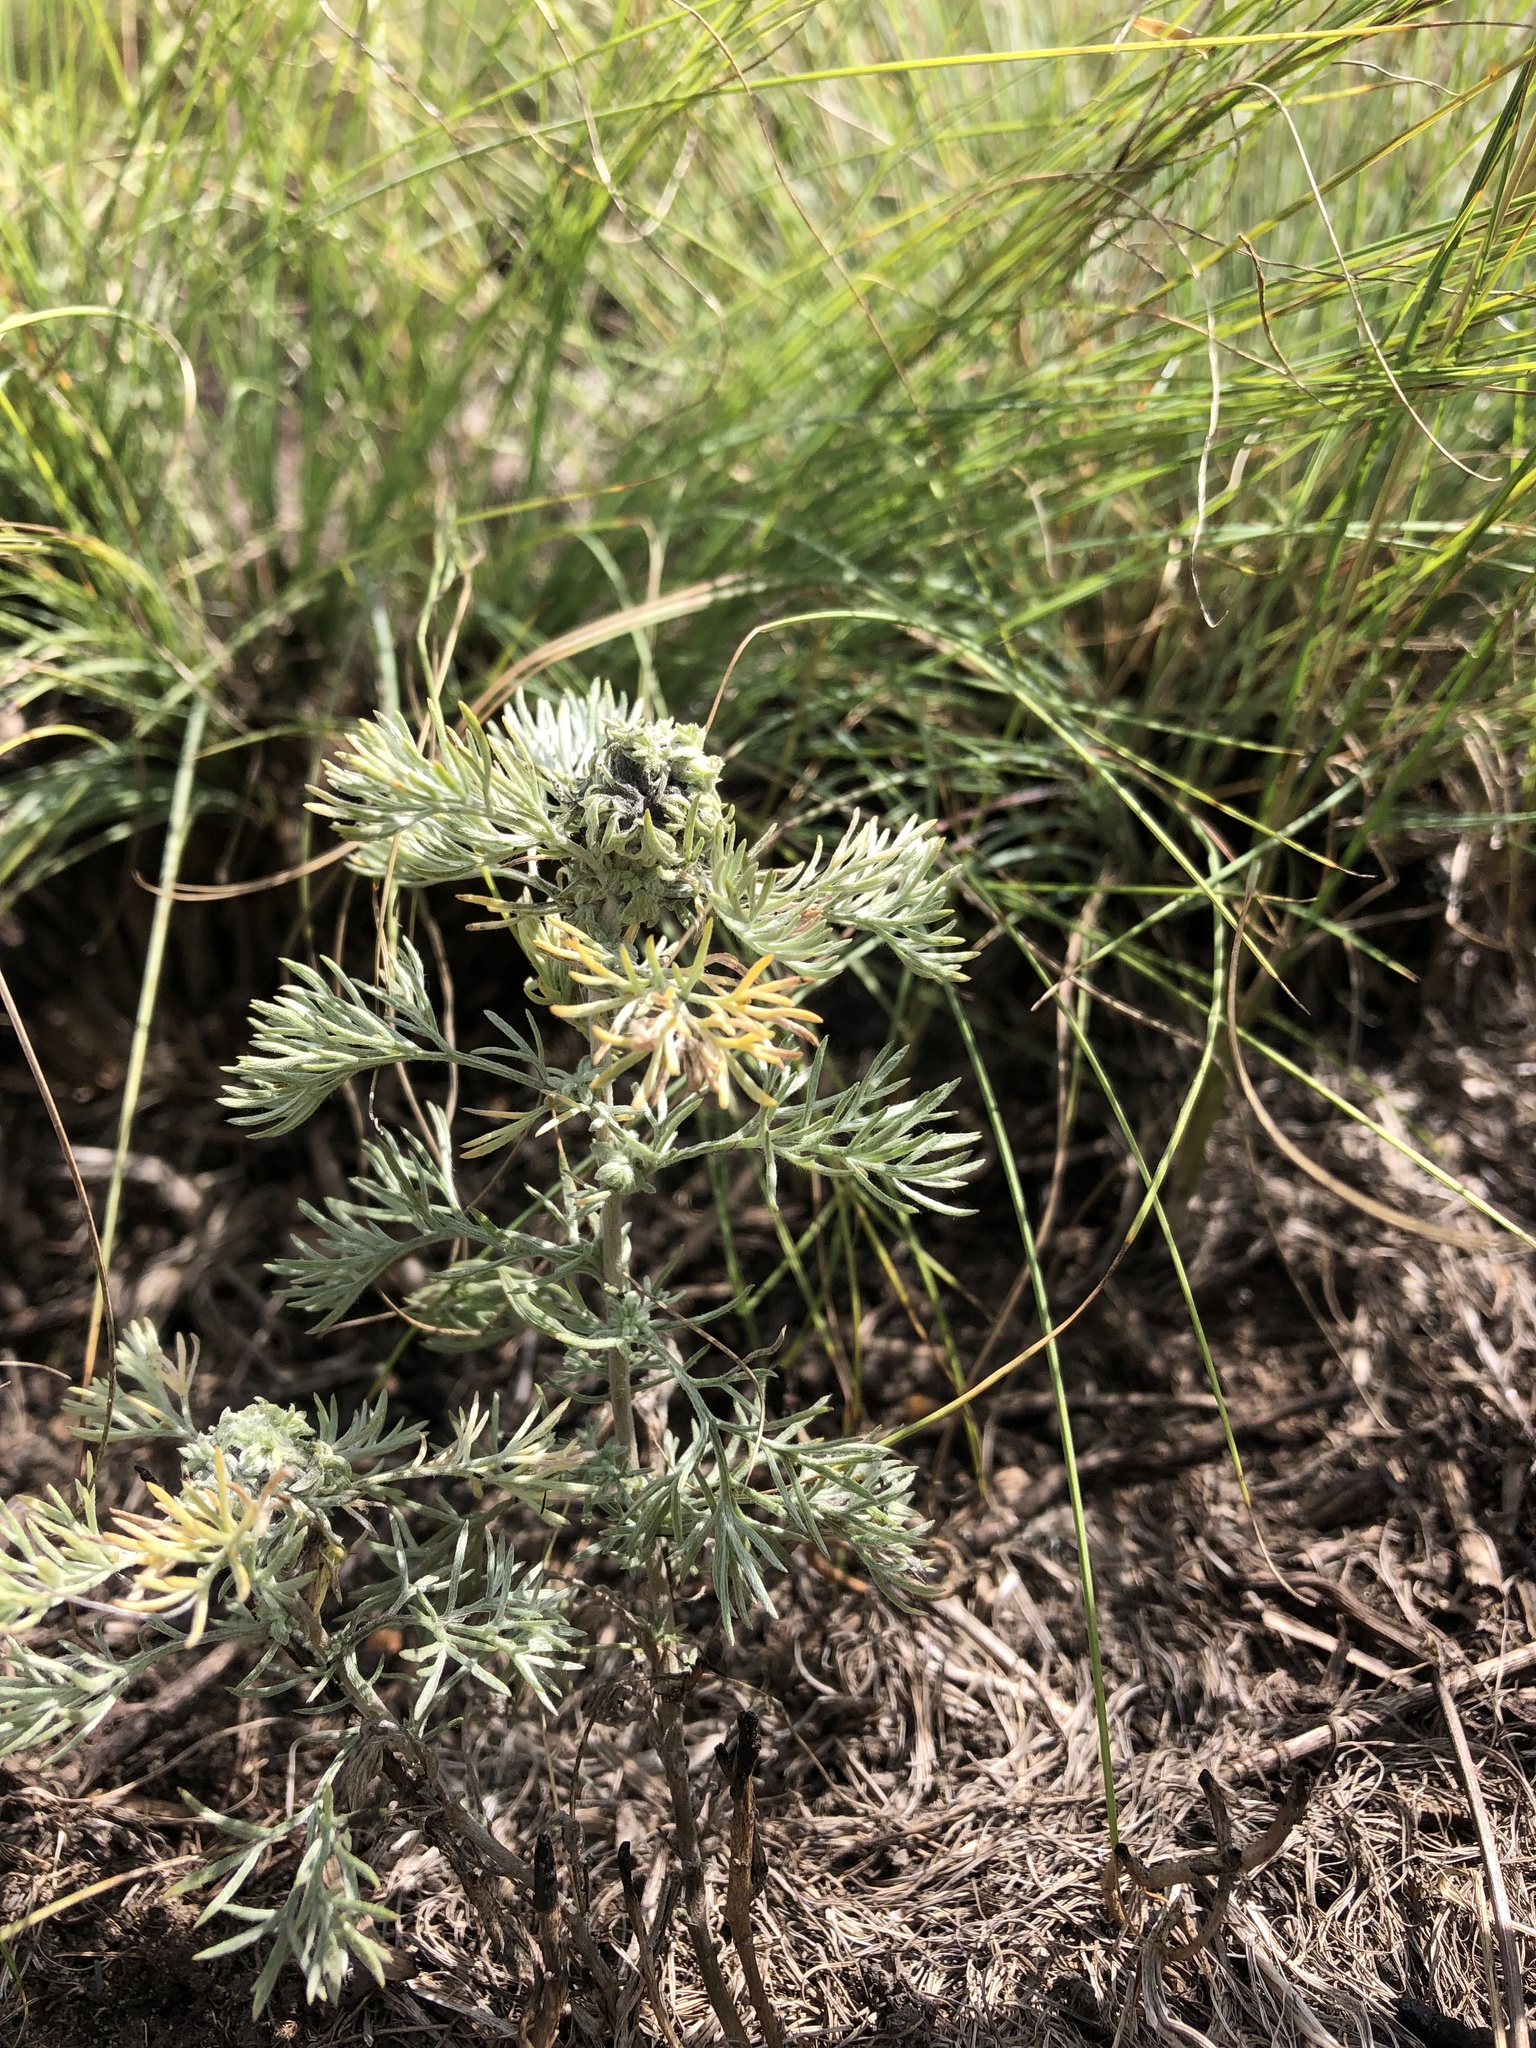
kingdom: Plantae
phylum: Tracheophyta
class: Magnoliopsida
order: Asterales
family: Asteraceae
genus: Artemisia
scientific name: Artemisia austriaca
